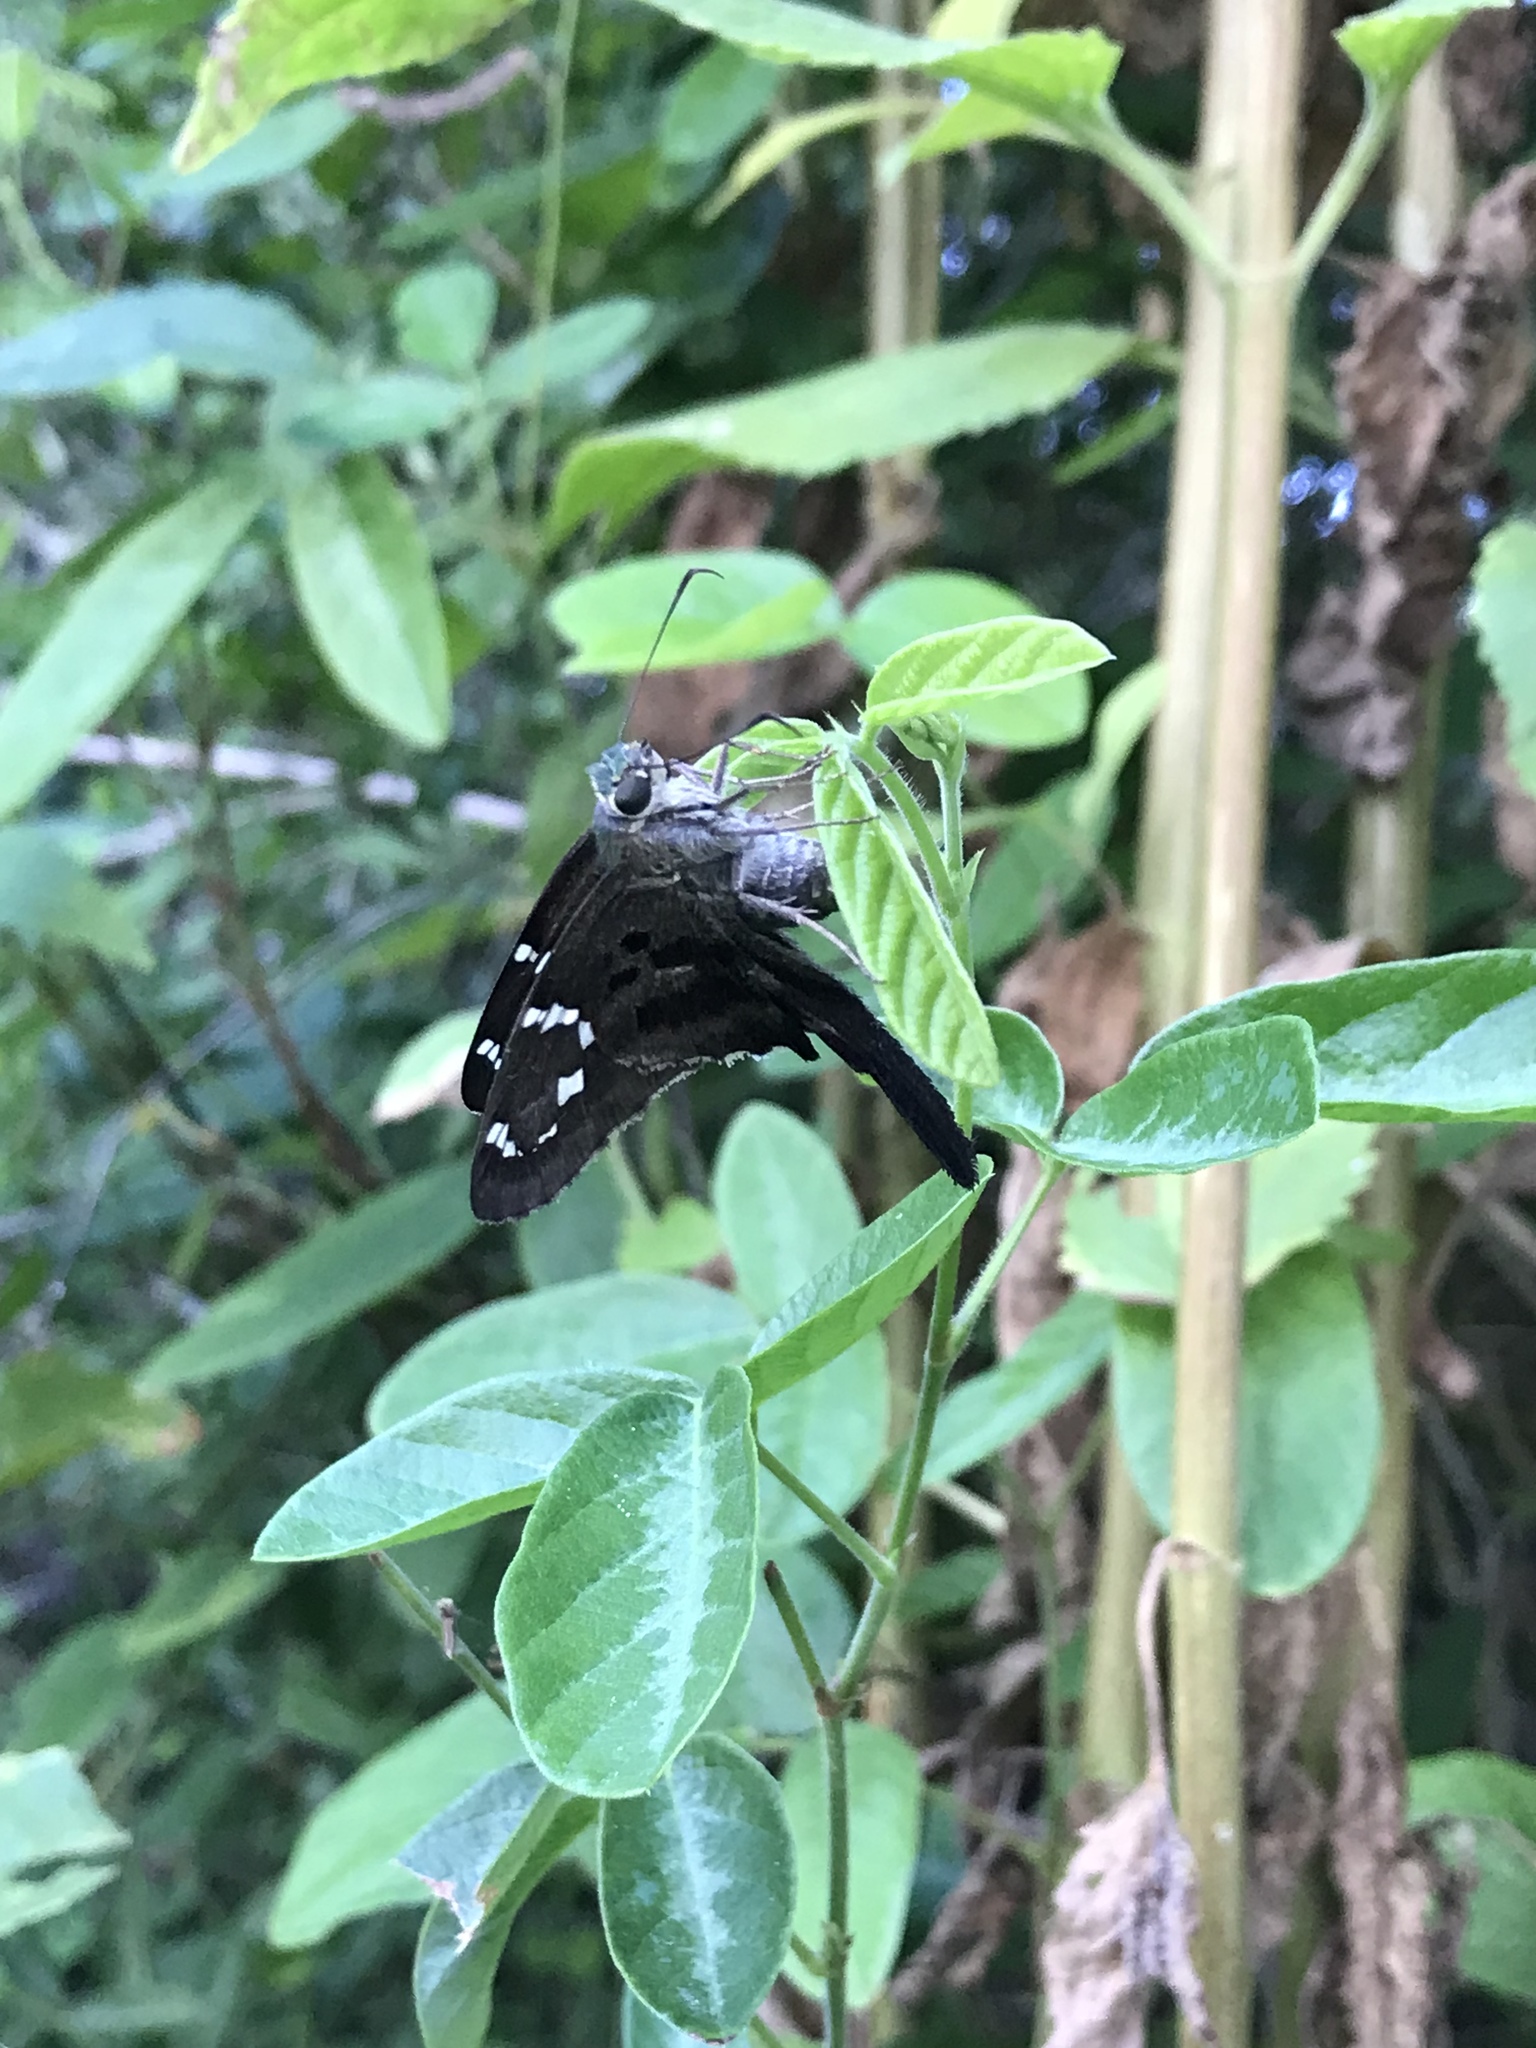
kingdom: Animalia
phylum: Arthropoda
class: Insecta
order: Lepidoptera
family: Hesperiidae
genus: Urbanus
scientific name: Urbanus proteus
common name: Long-tailed skipper
